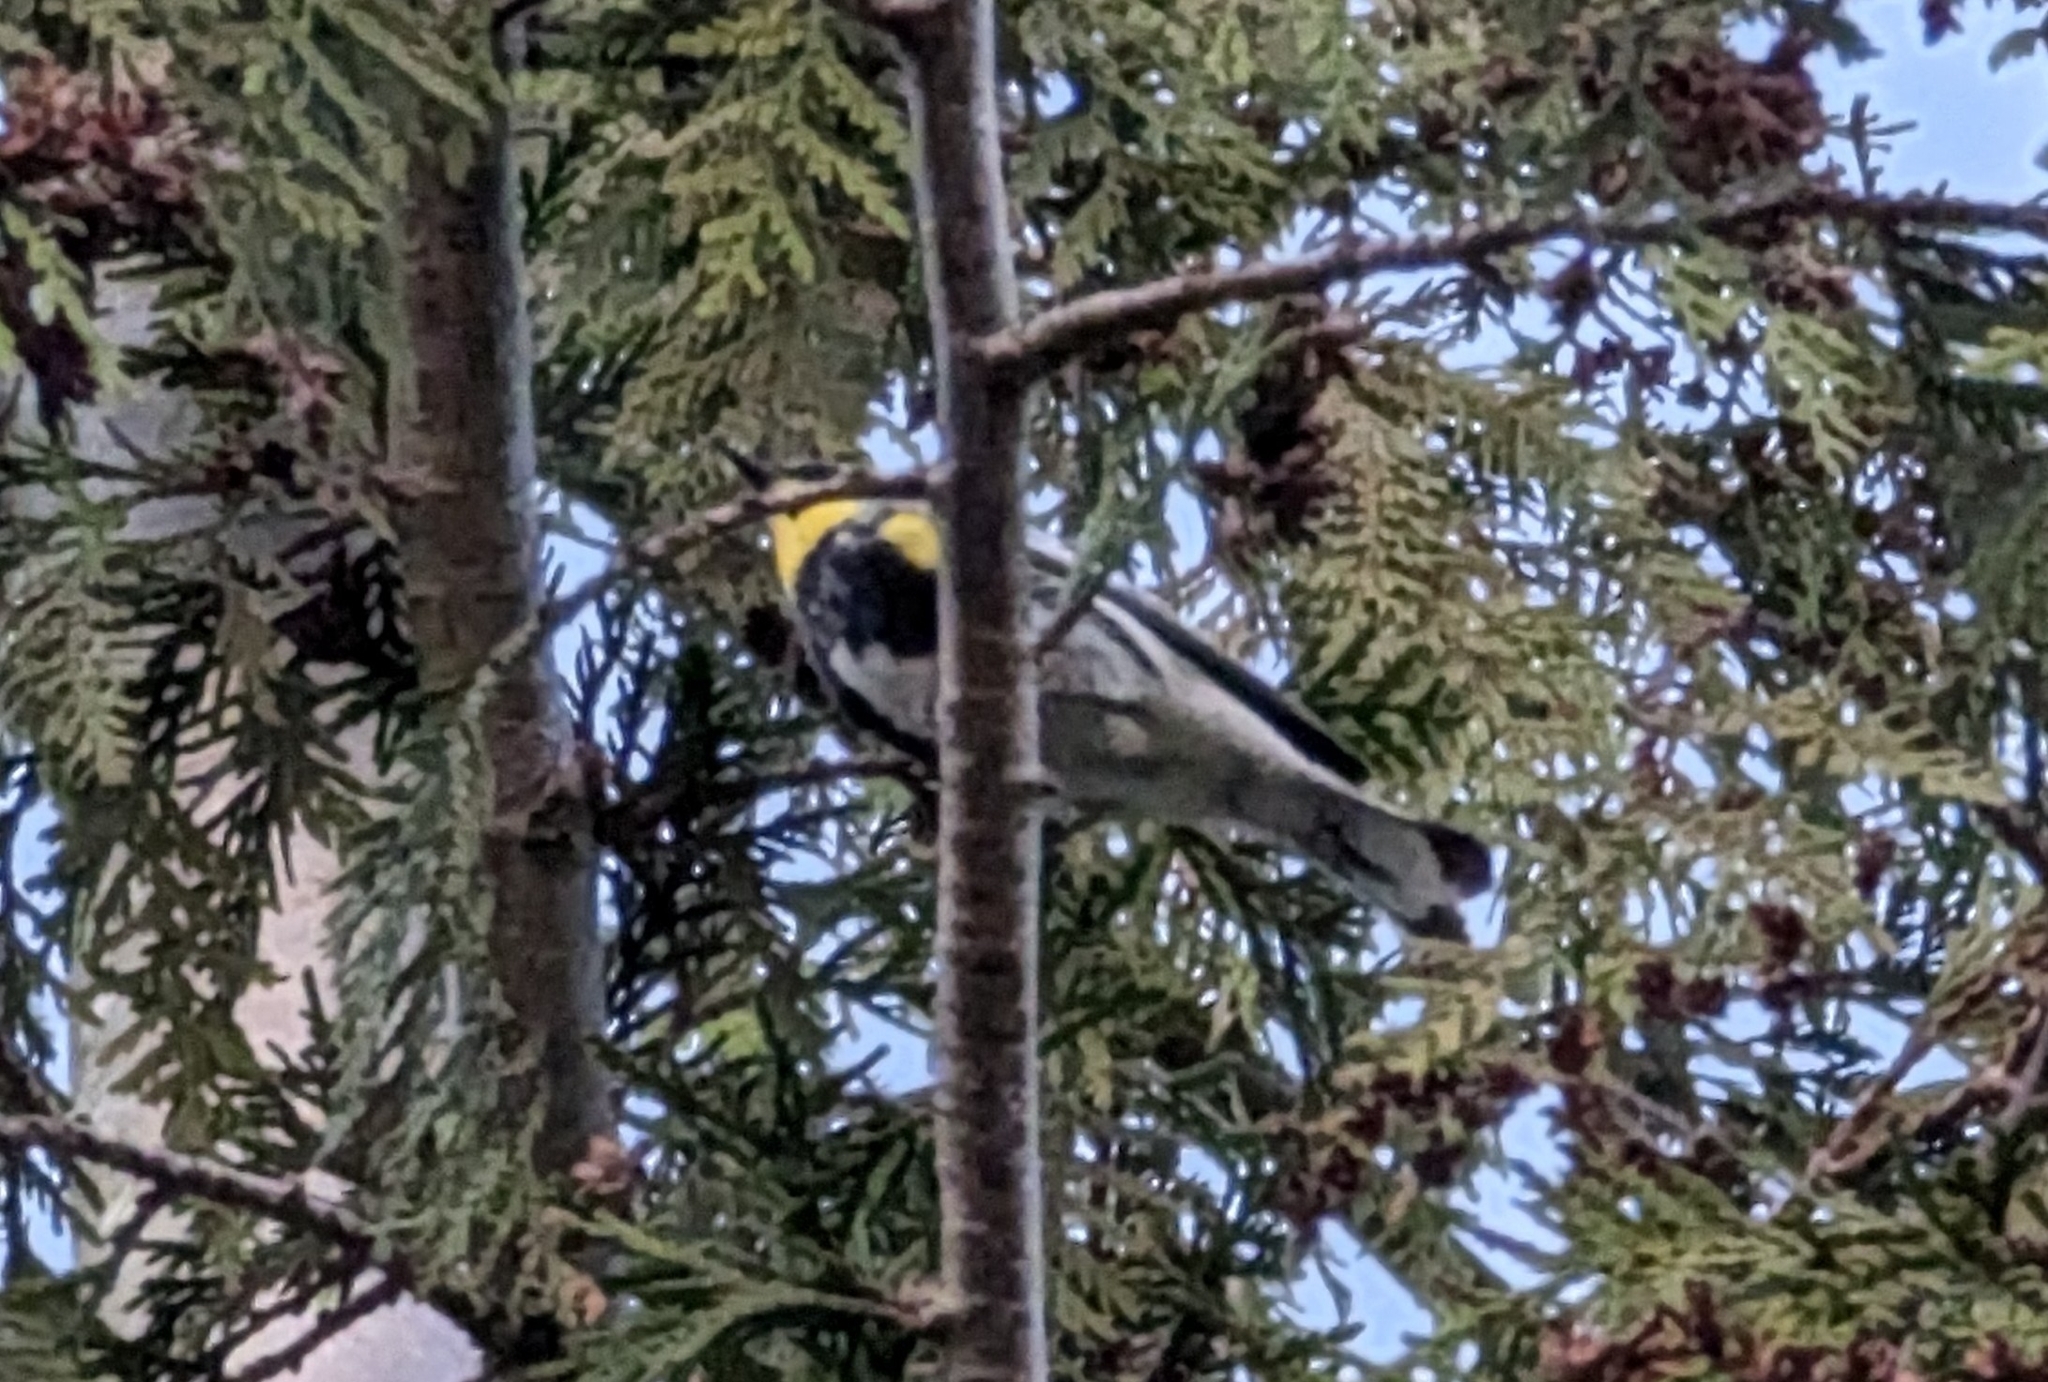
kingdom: Animalia
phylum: Chordata
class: Aves
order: Passeriformes
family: Parulidae
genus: Setophaga
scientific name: Setophaga auduboni
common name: Audubon's warbler
